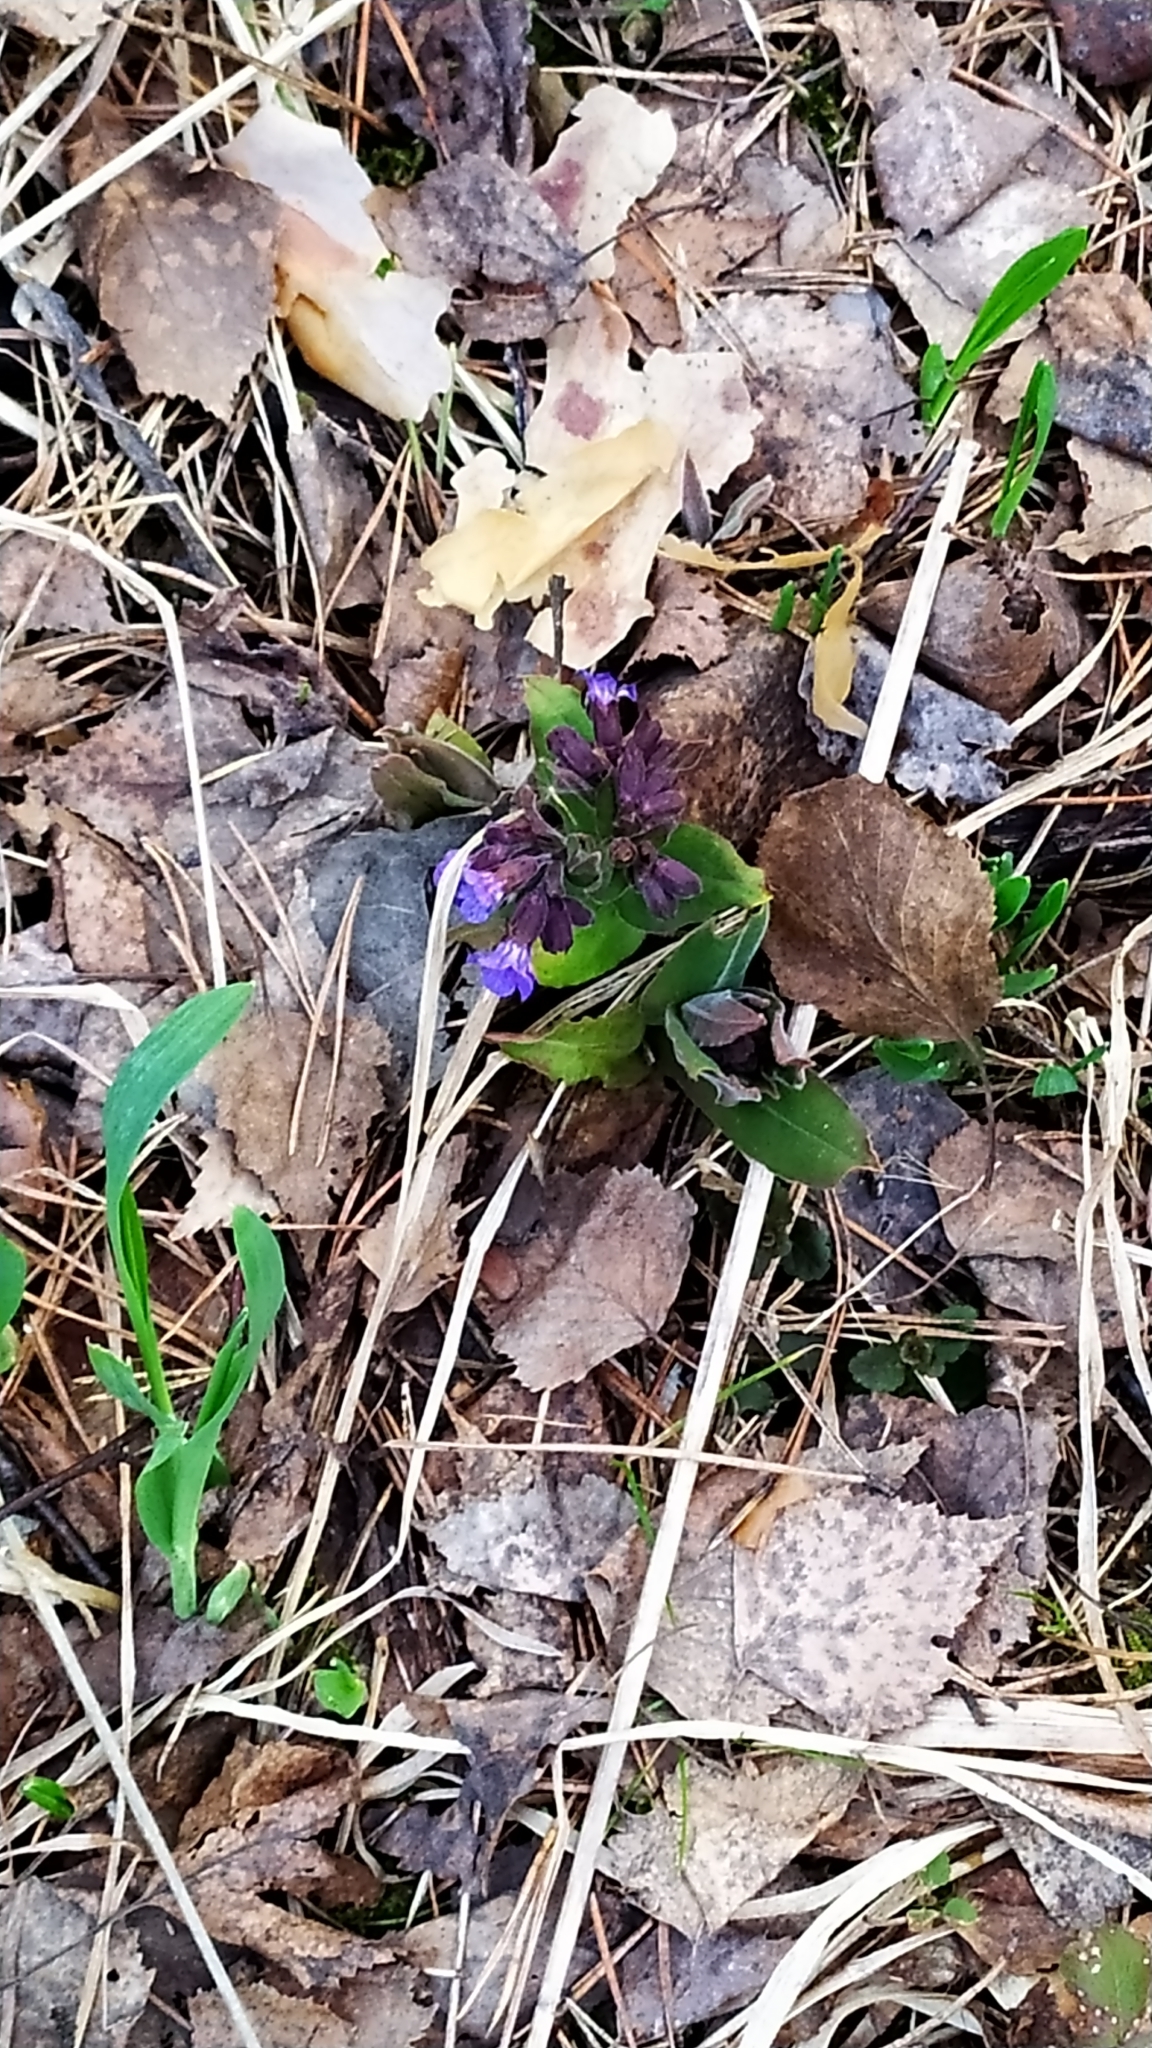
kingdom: Plantae
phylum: Tracheophyta
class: Magnoliopsida
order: Boraginales
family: Boraginaceae
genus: Pulmonaria
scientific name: Pulmonaria mollis
